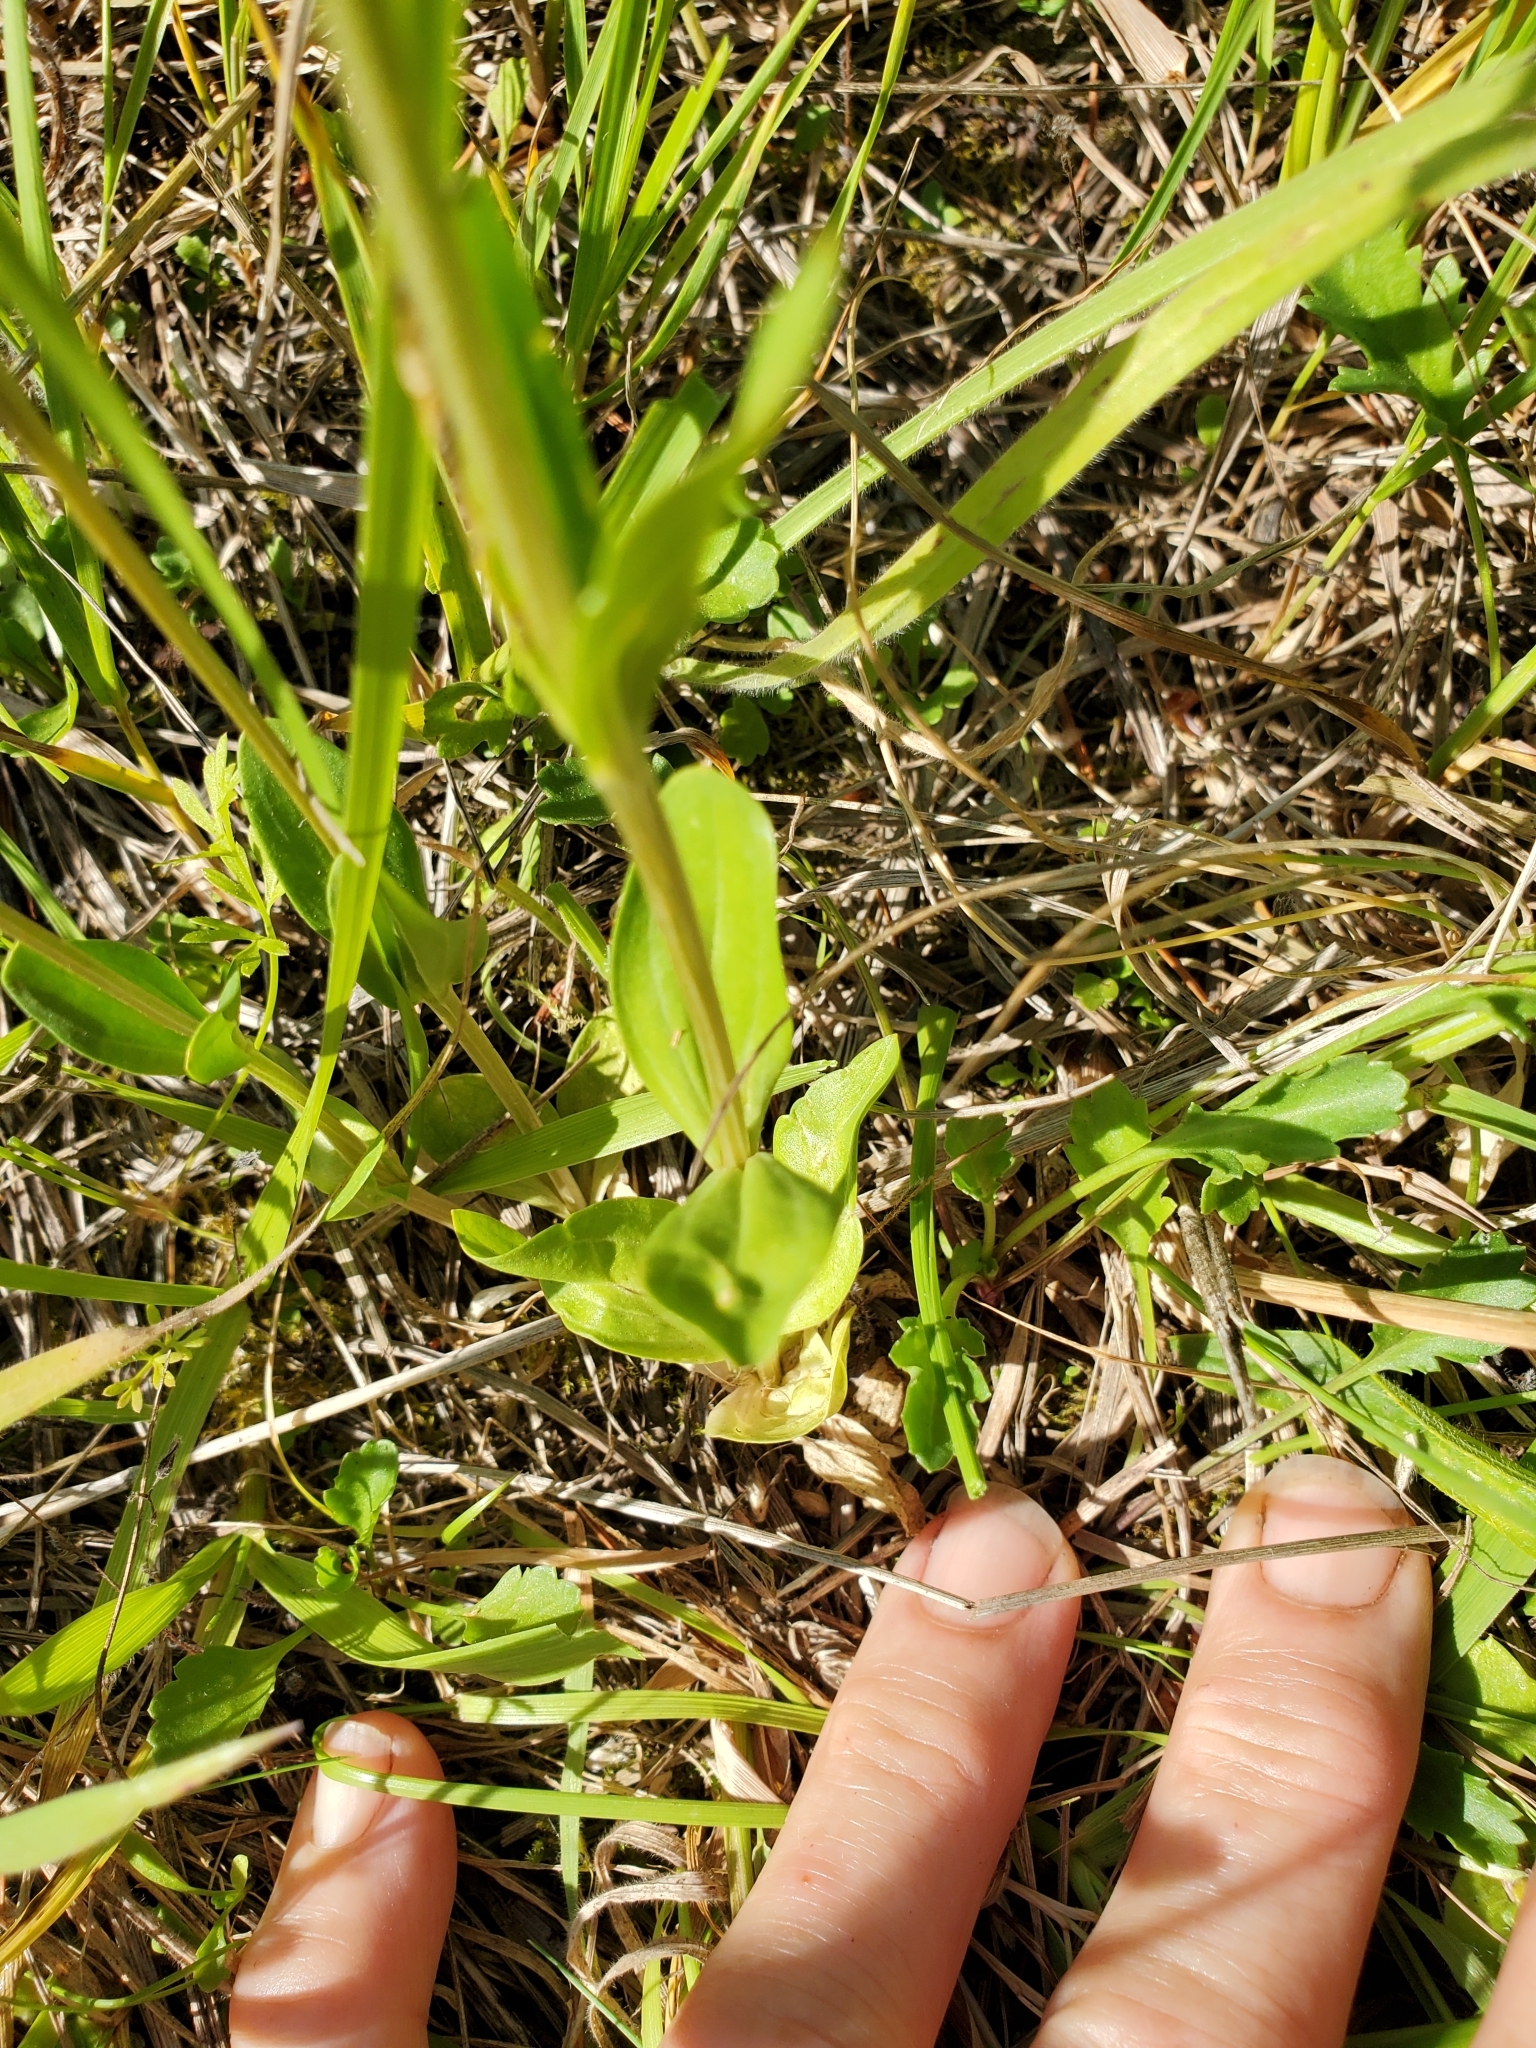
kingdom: Plantae
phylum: Tracheophyta
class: Magnoliopsida
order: Gentianales
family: Gentianaceae
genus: Centaurium
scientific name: Centaurium erythraea
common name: Common centaury
